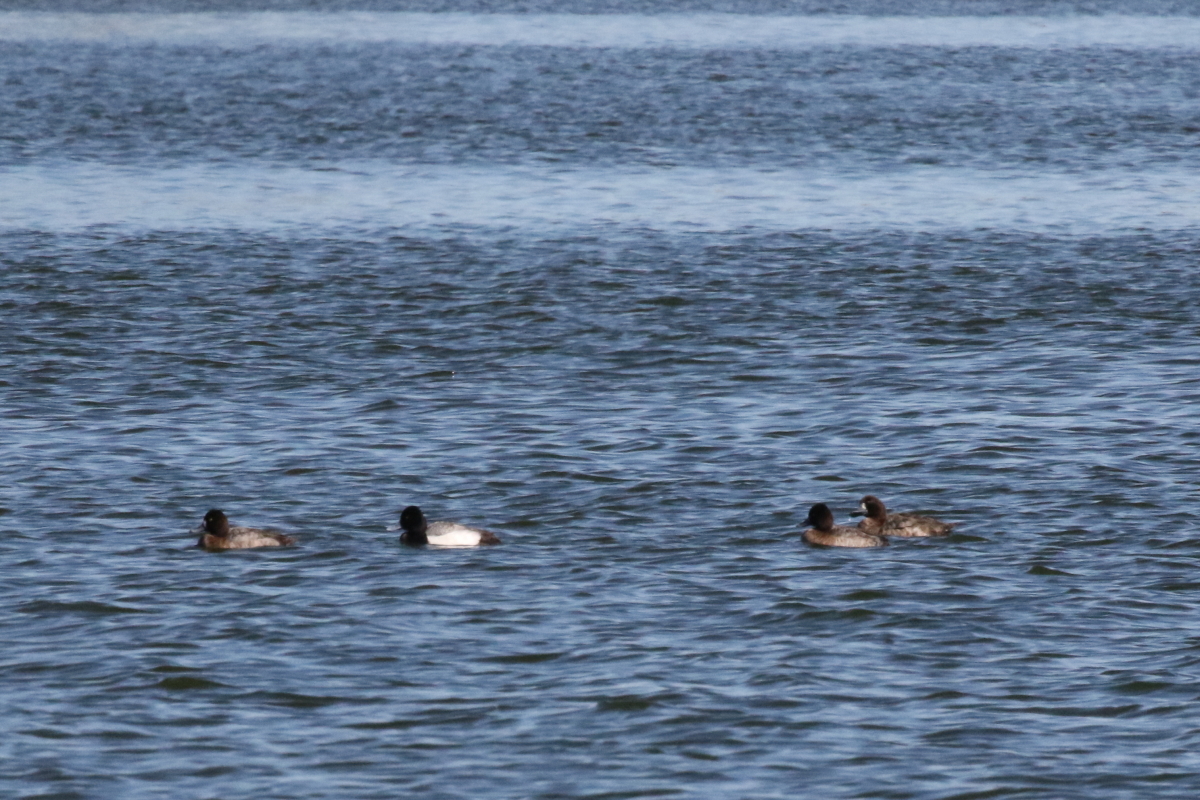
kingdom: Animalia
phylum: Chordata
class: Aves
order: Anseriformes
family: Anatidae
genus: Aythya
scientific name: Aythya affinis
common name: Lesser scaup
